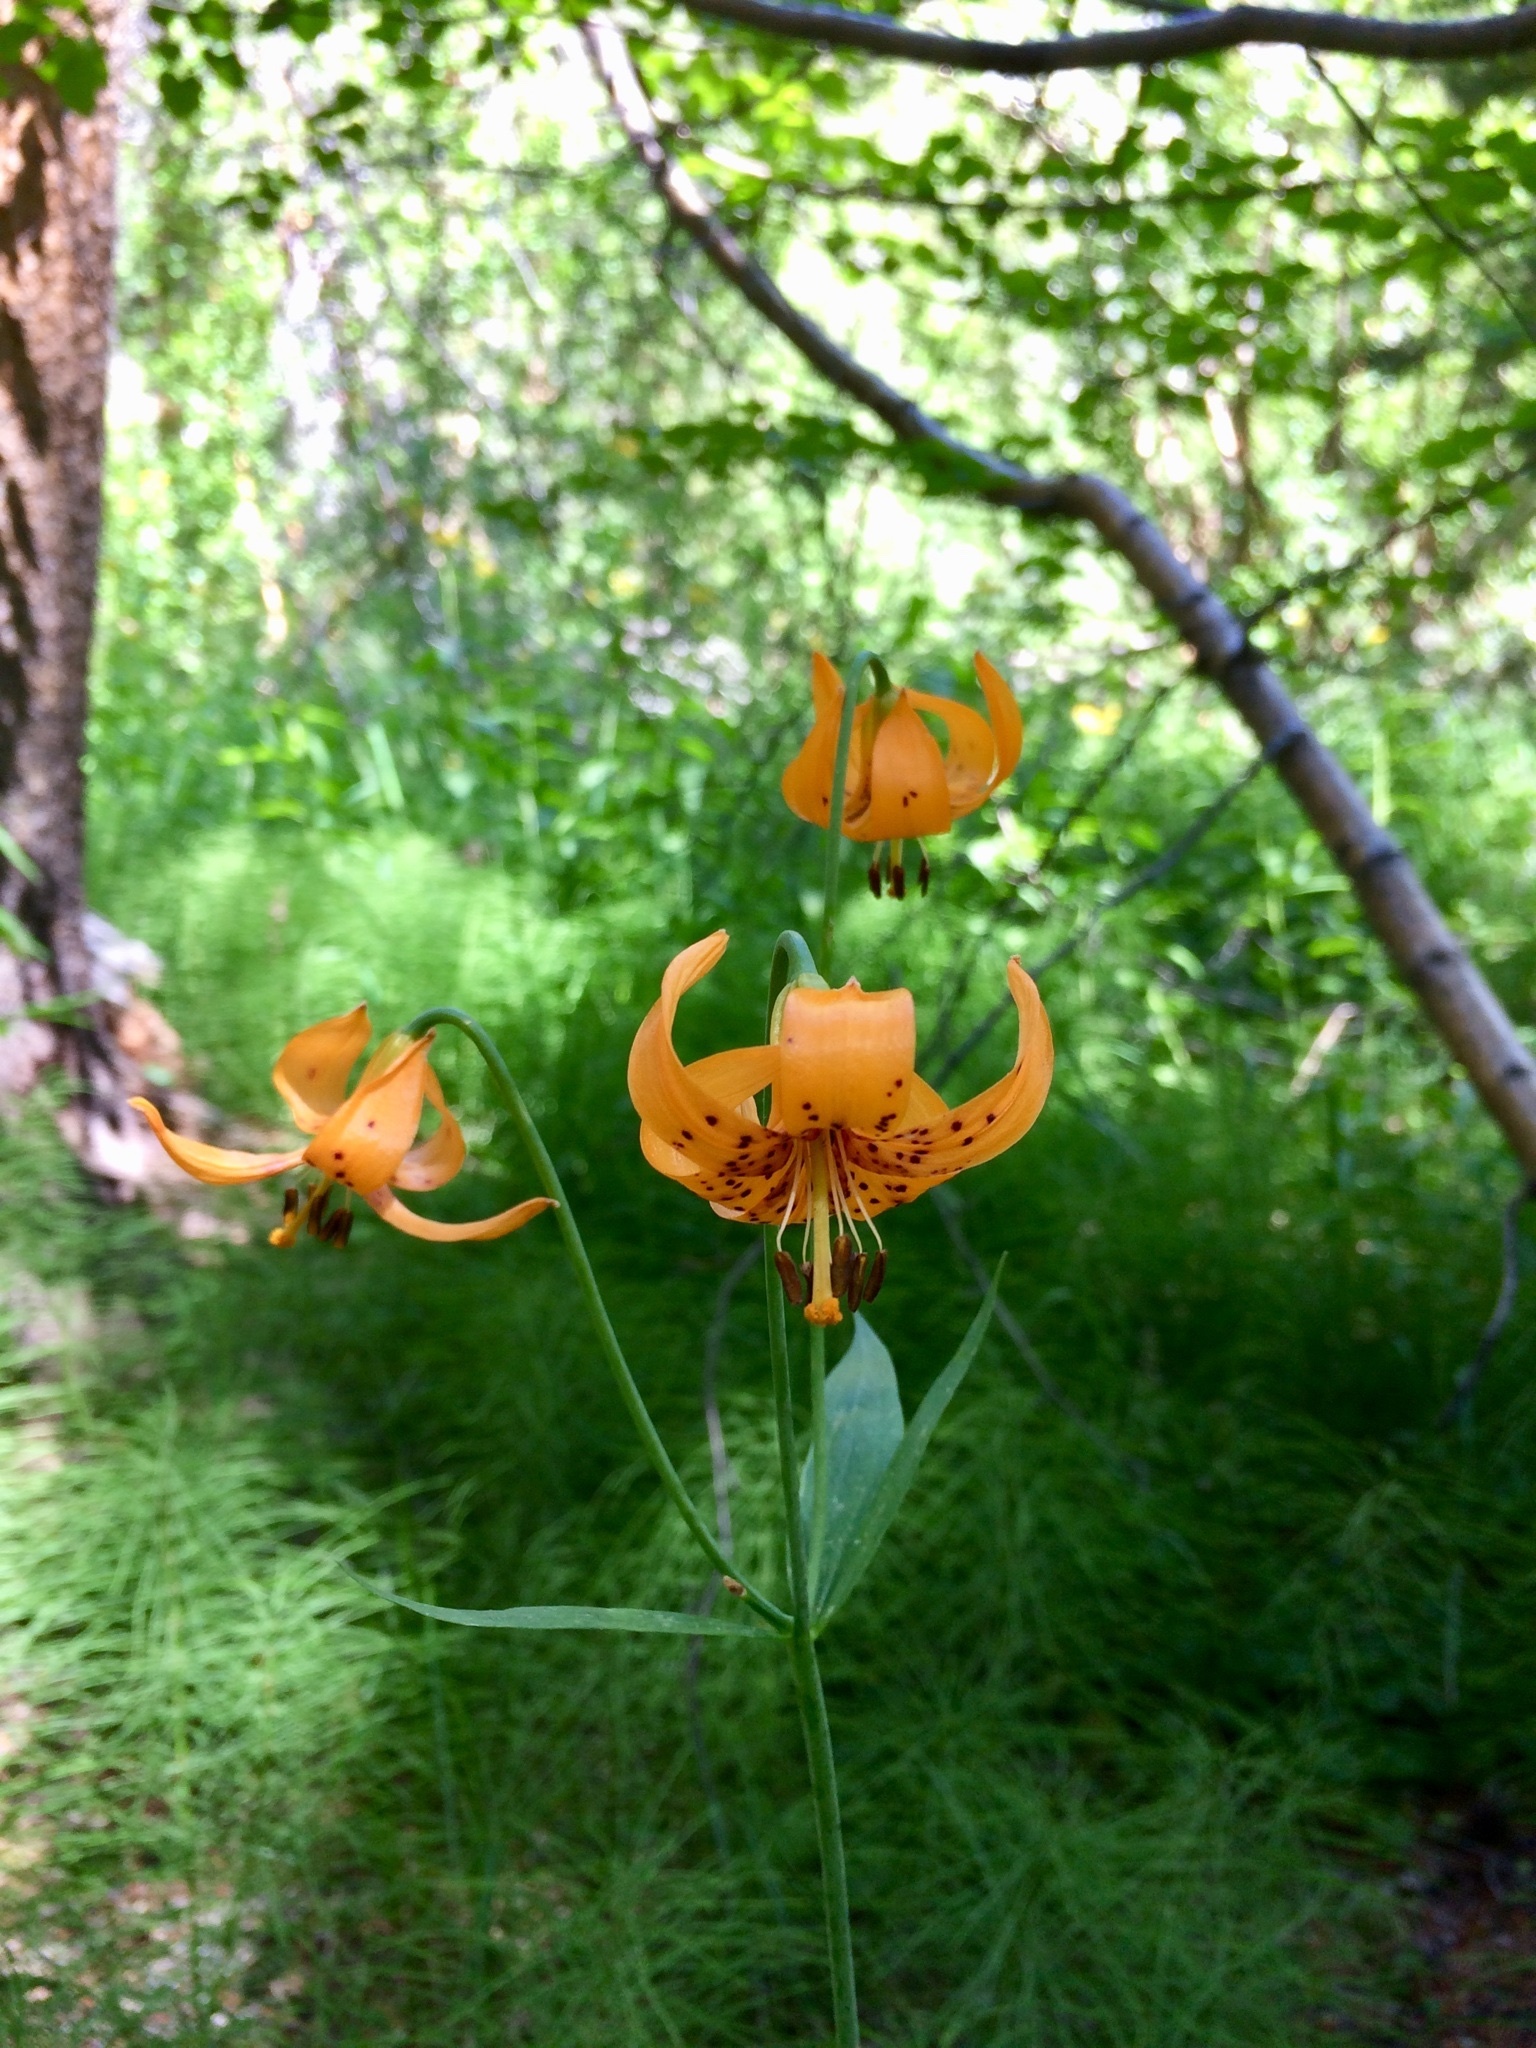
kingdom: Plantae
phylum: Tracheophyta
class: Liliopsida
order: Liliales
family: Liliaceae
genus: Lilium
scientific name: Lilium kelleyanum
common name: Kelley's lily
